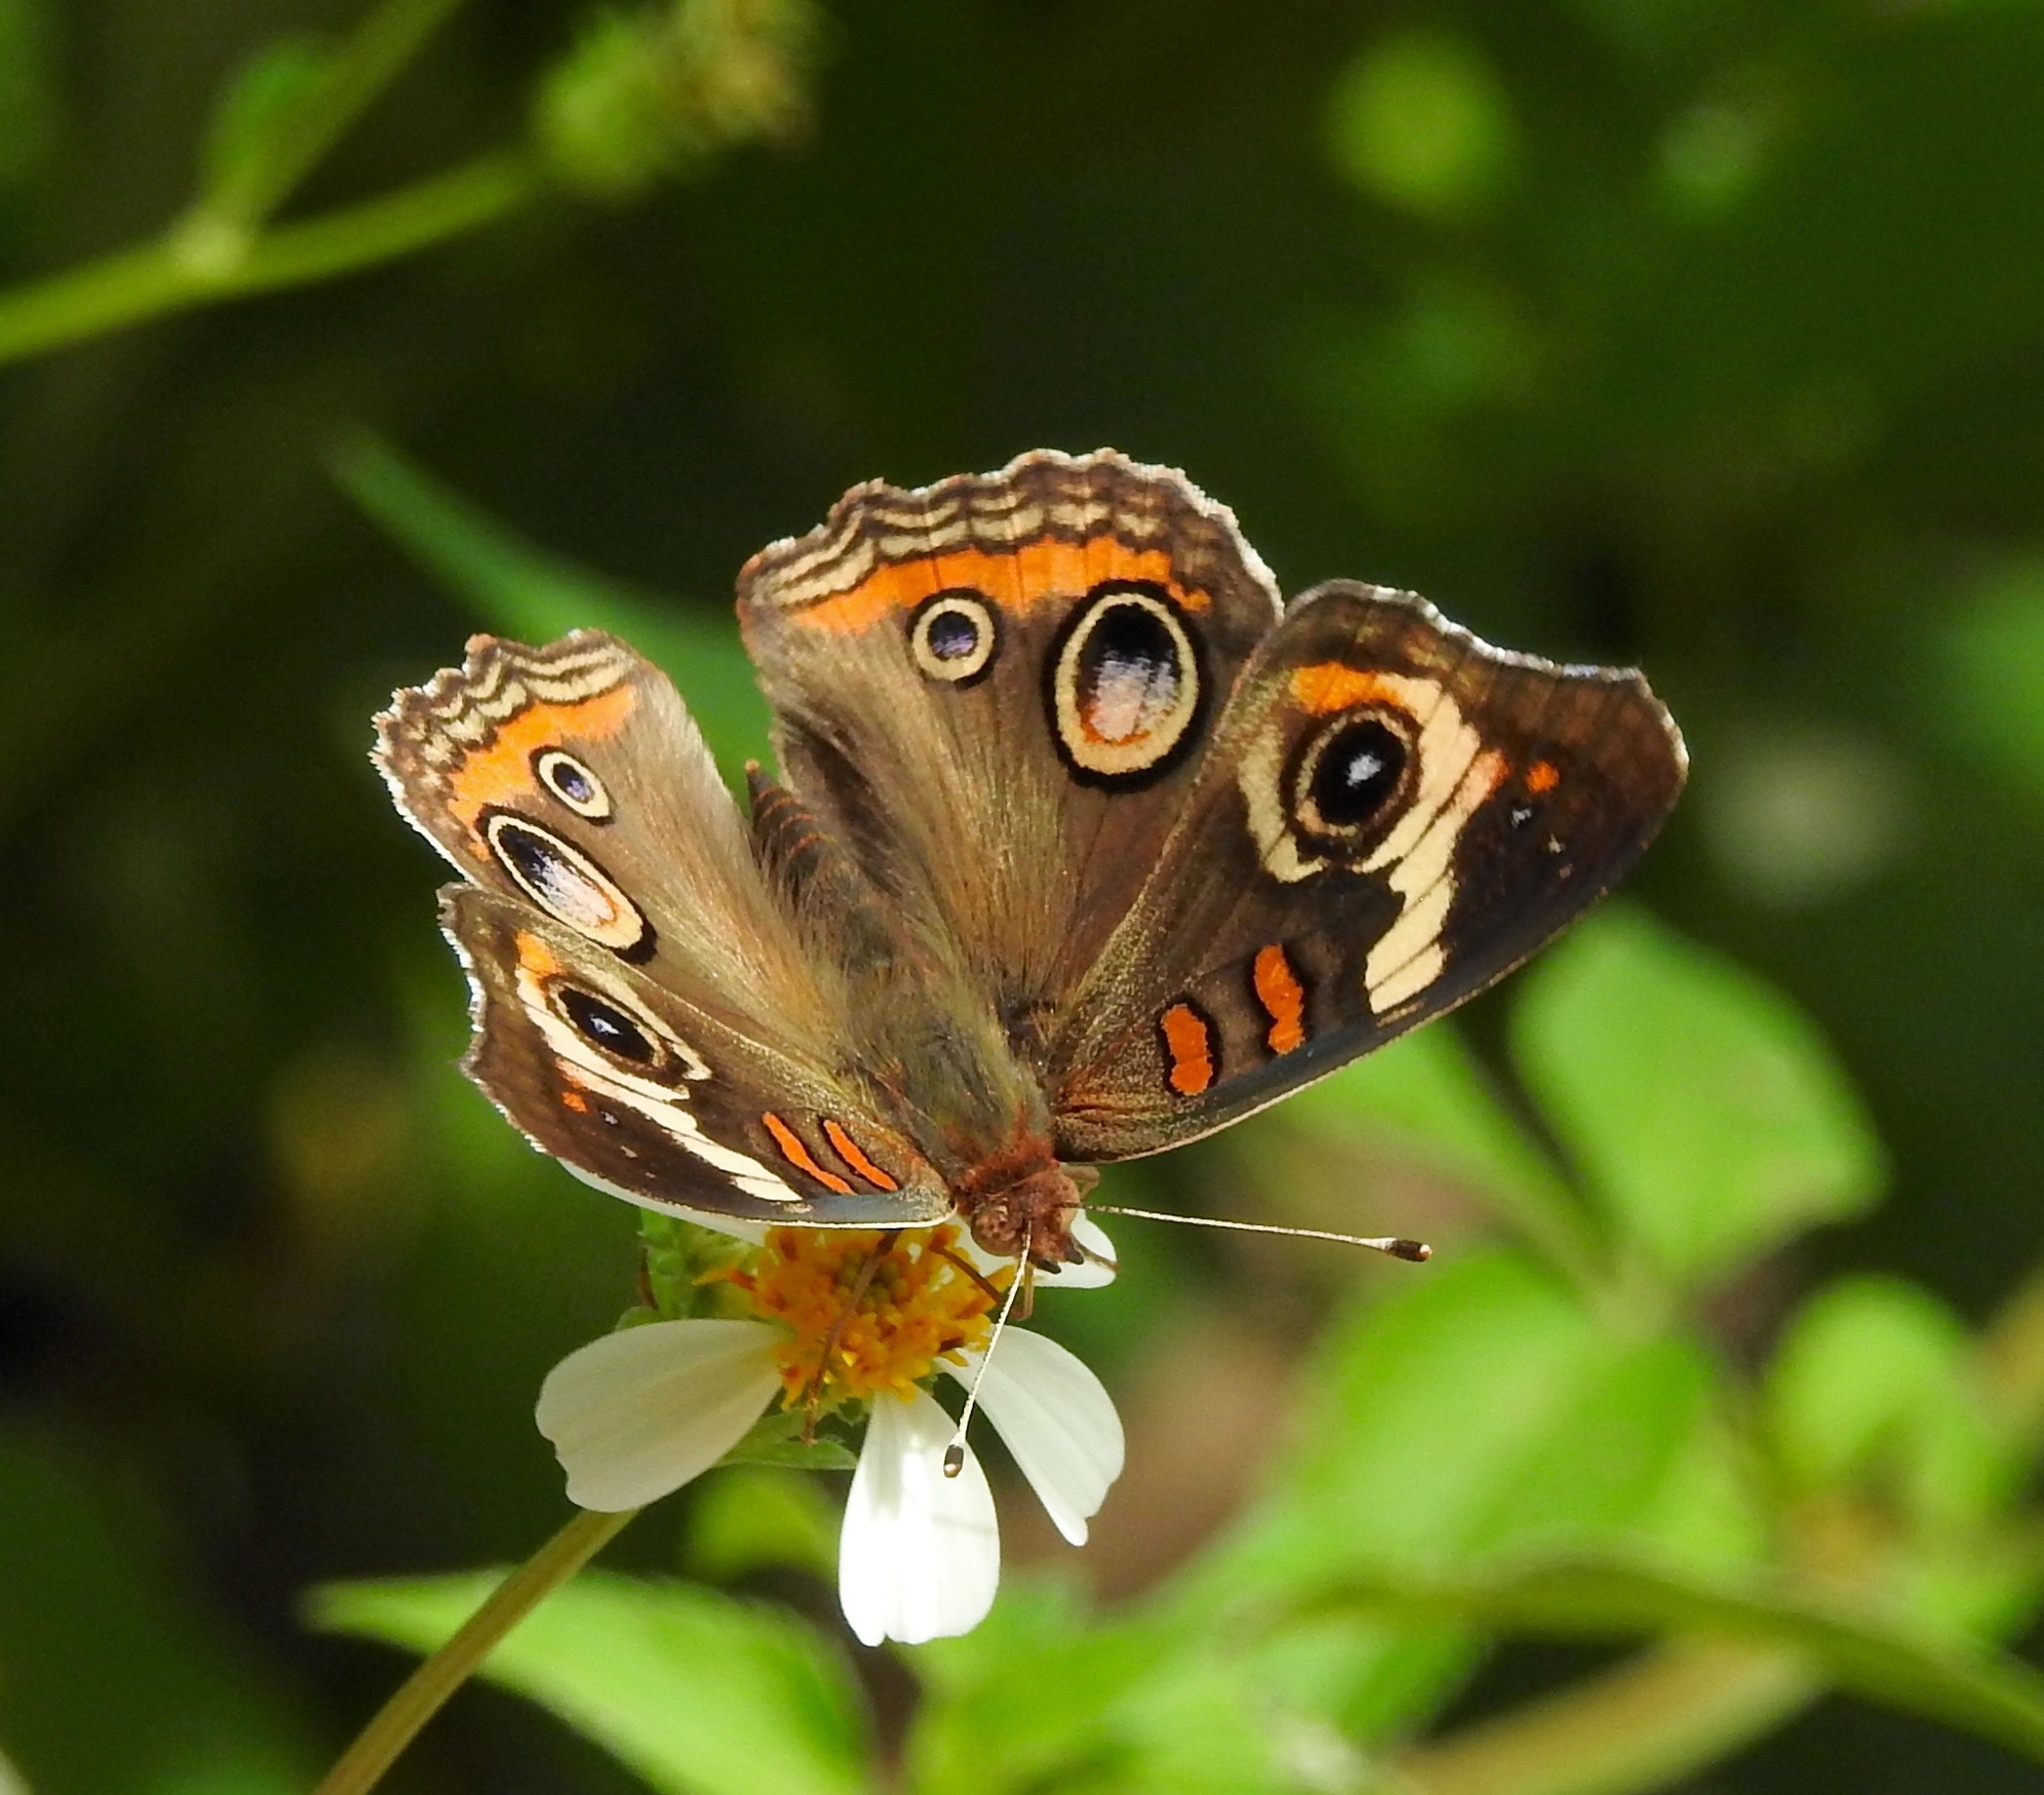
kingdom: Animalia
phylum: Arthropoda
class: Insecta
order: Lepidoptera
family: Nymphalidae
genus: Junonia
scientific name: Junonia coenia
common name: Common buckeye
